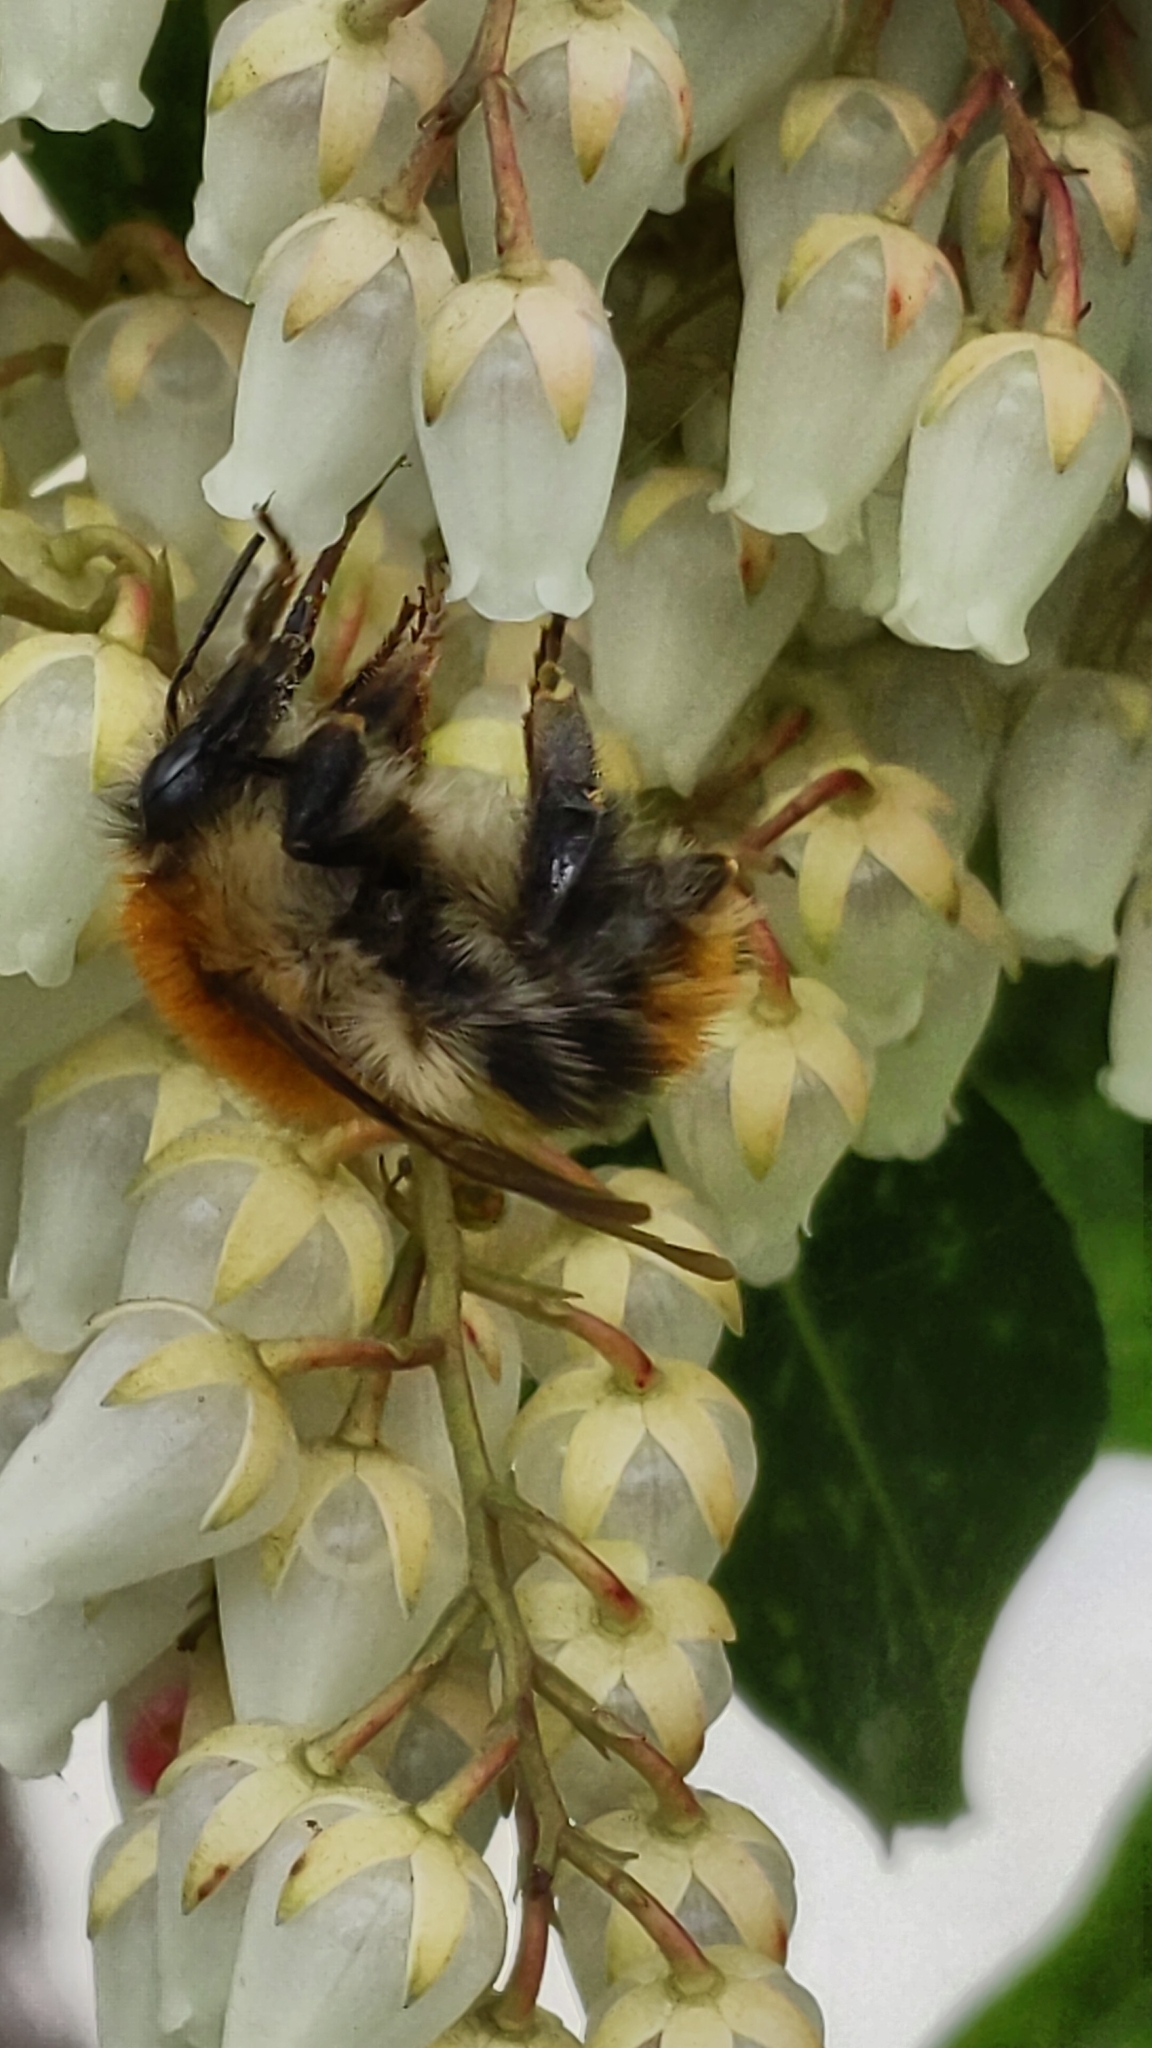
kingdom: Animalia
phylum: Arthropoda
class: Insecta
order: Hymenoptera
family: Apidae
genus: Bombus
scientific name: Bombus pascuorum
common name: Common carder bee
